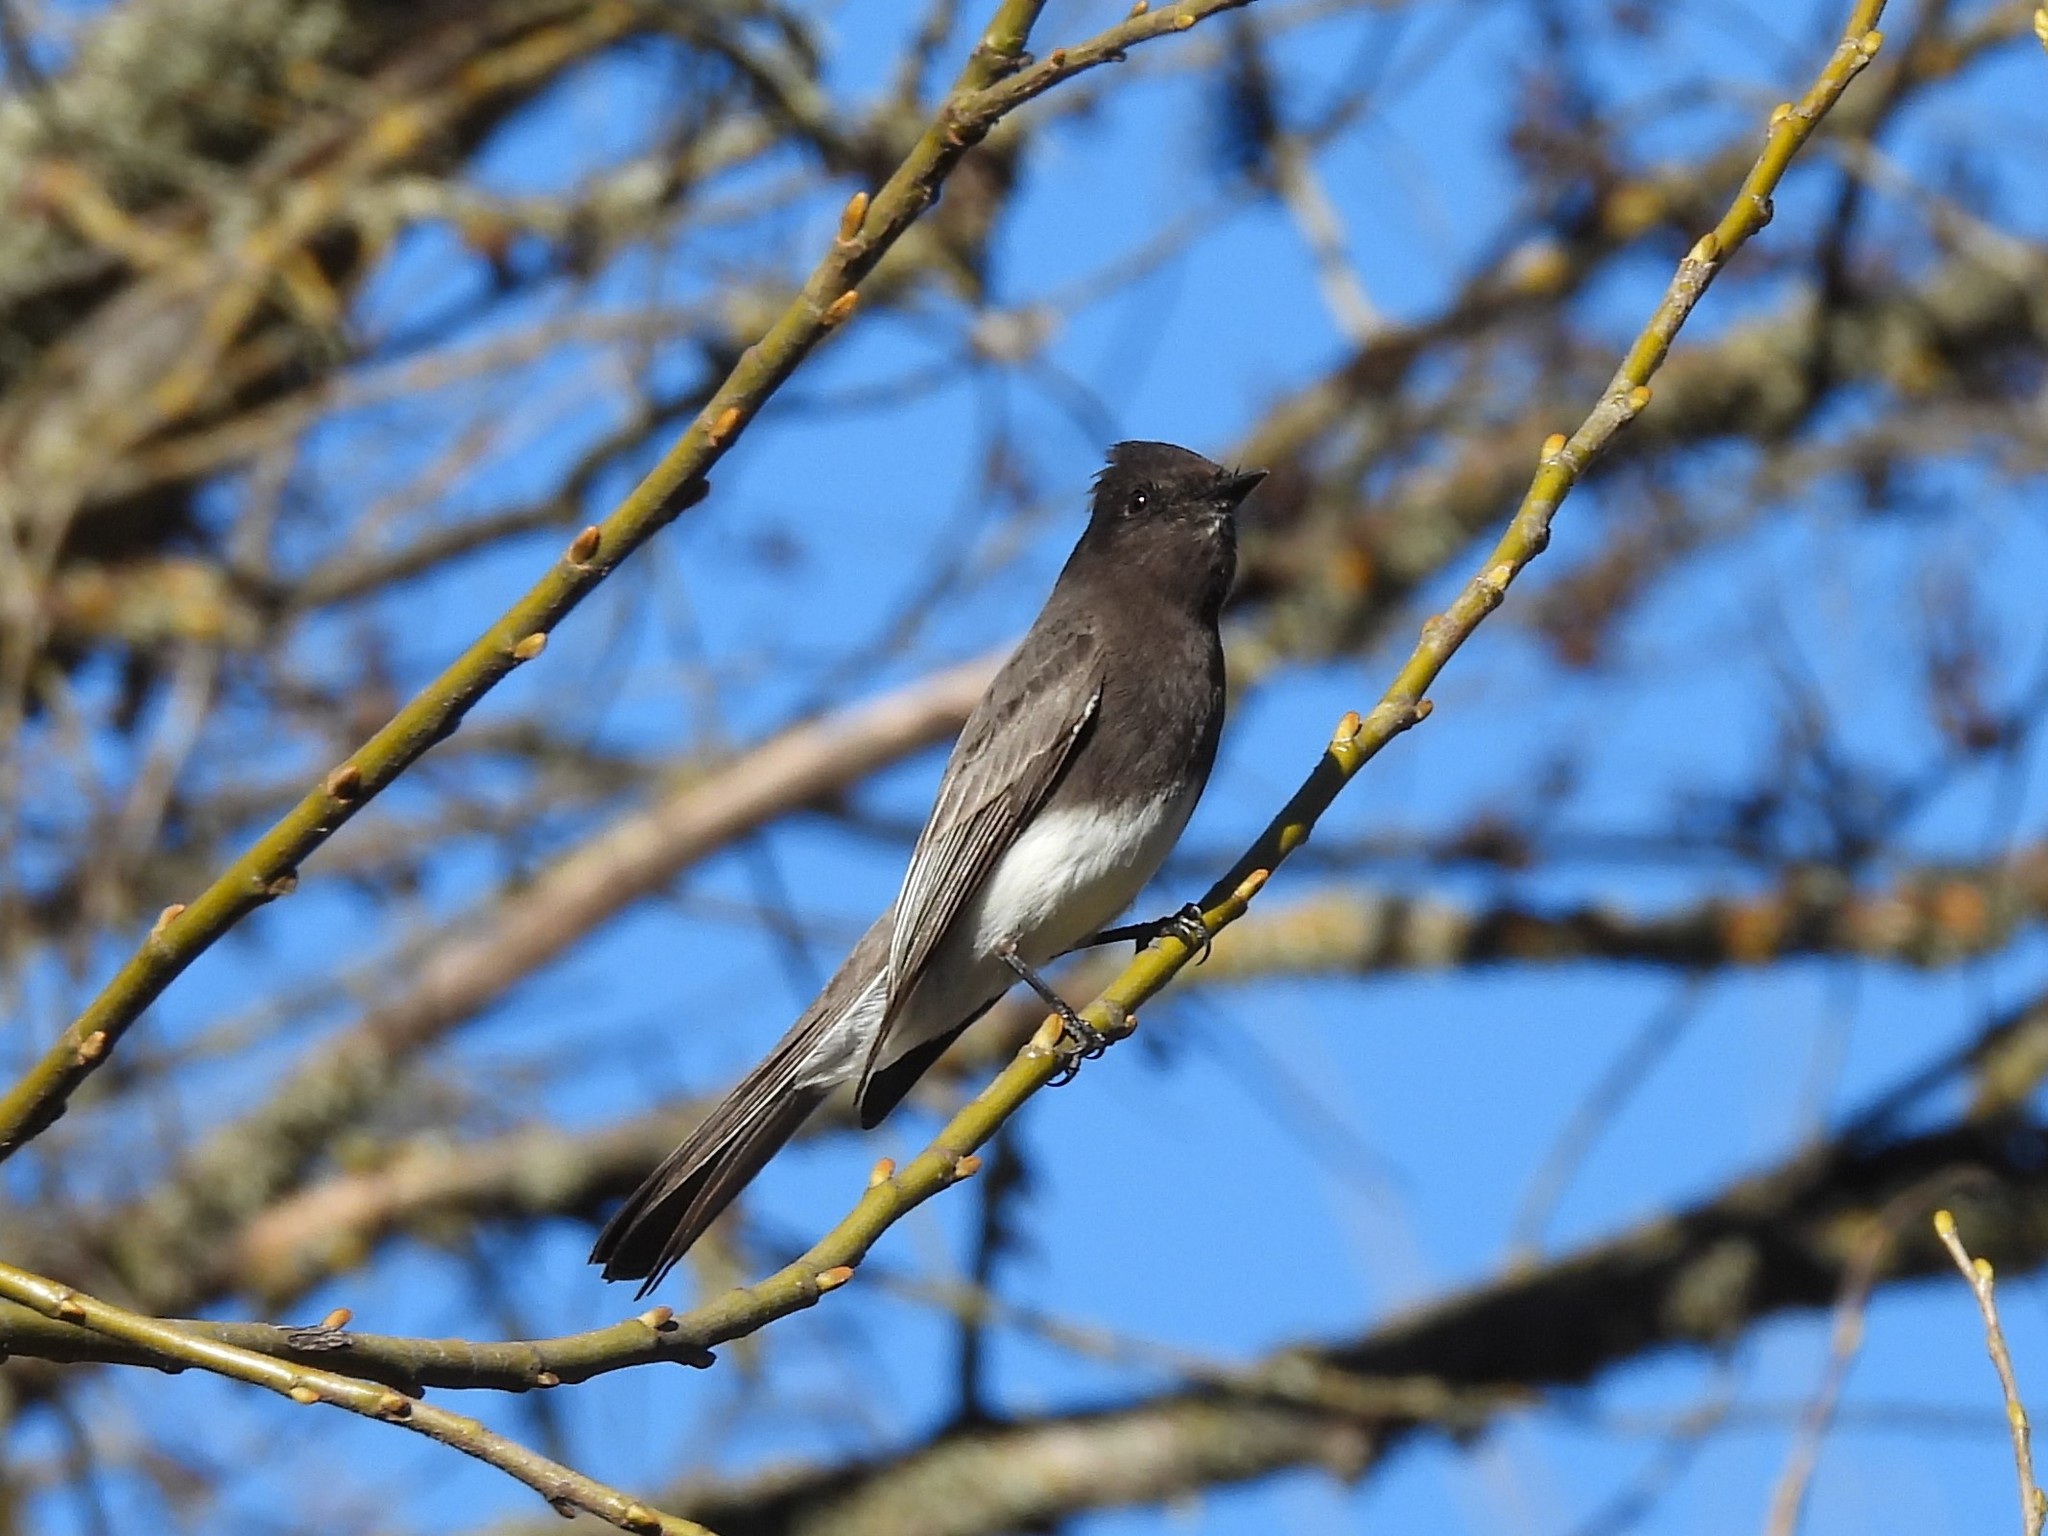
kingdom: Animalia
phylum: Chordata
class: Aves
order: Passeriformes
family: Tyrannidae
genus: Sayornis
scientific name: Sayornis nigricans
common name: Black phoebe
